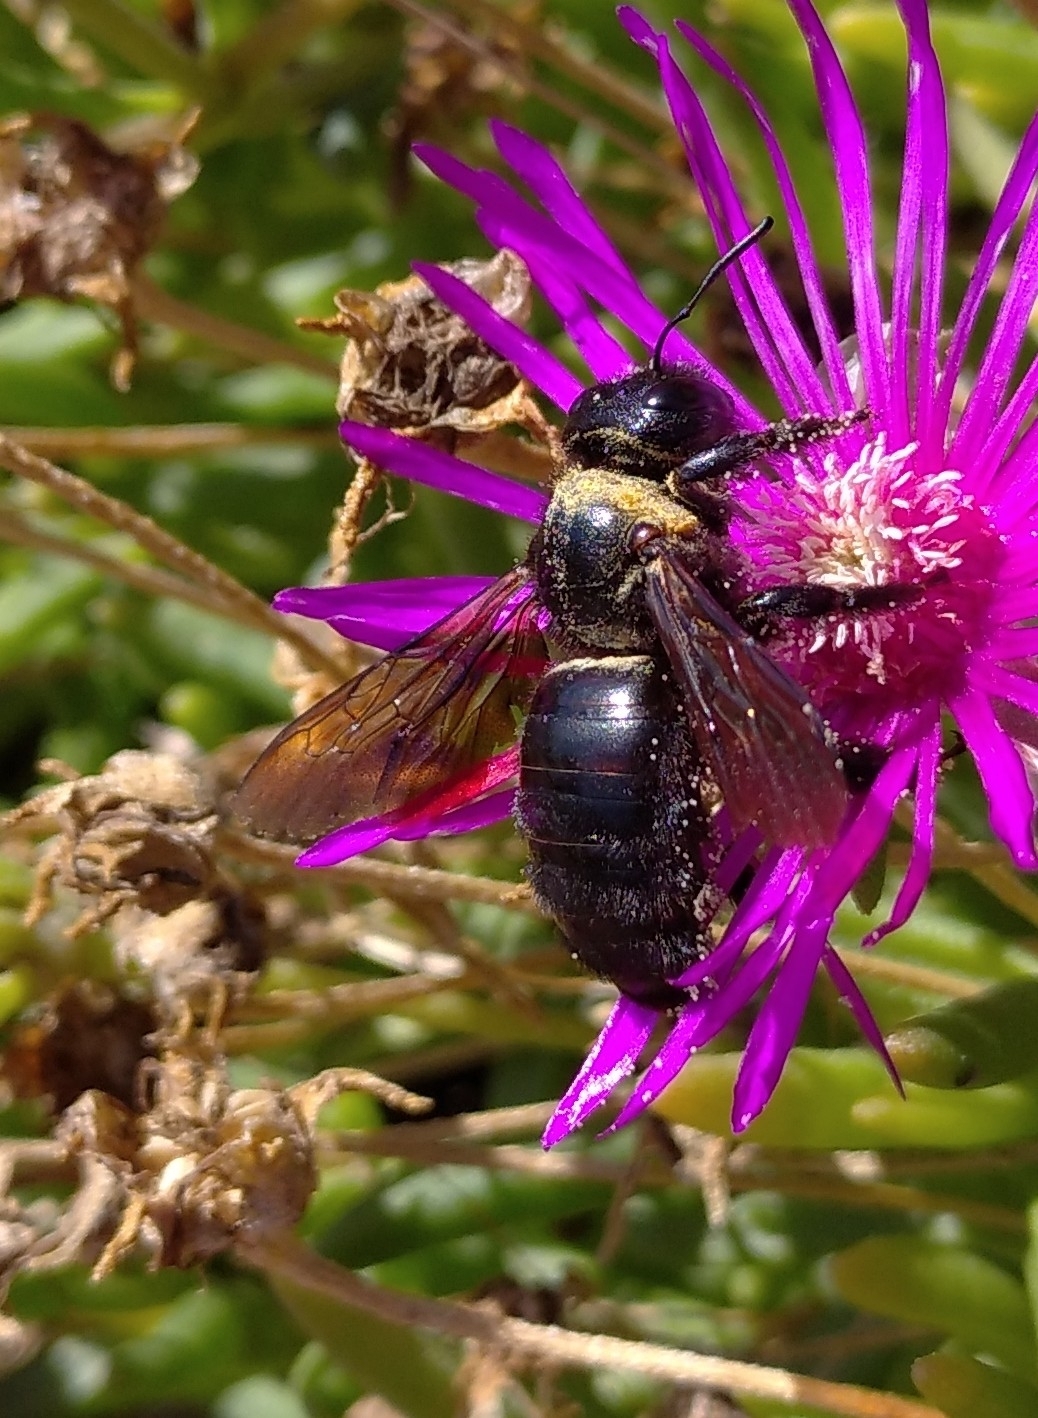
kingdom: Animalia
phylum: Arthropoda
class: Insecta
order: Hymenoptera
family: Apidae
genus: Xylocopa
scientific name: Xylocopa violacea
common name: Violet carpenter bee
